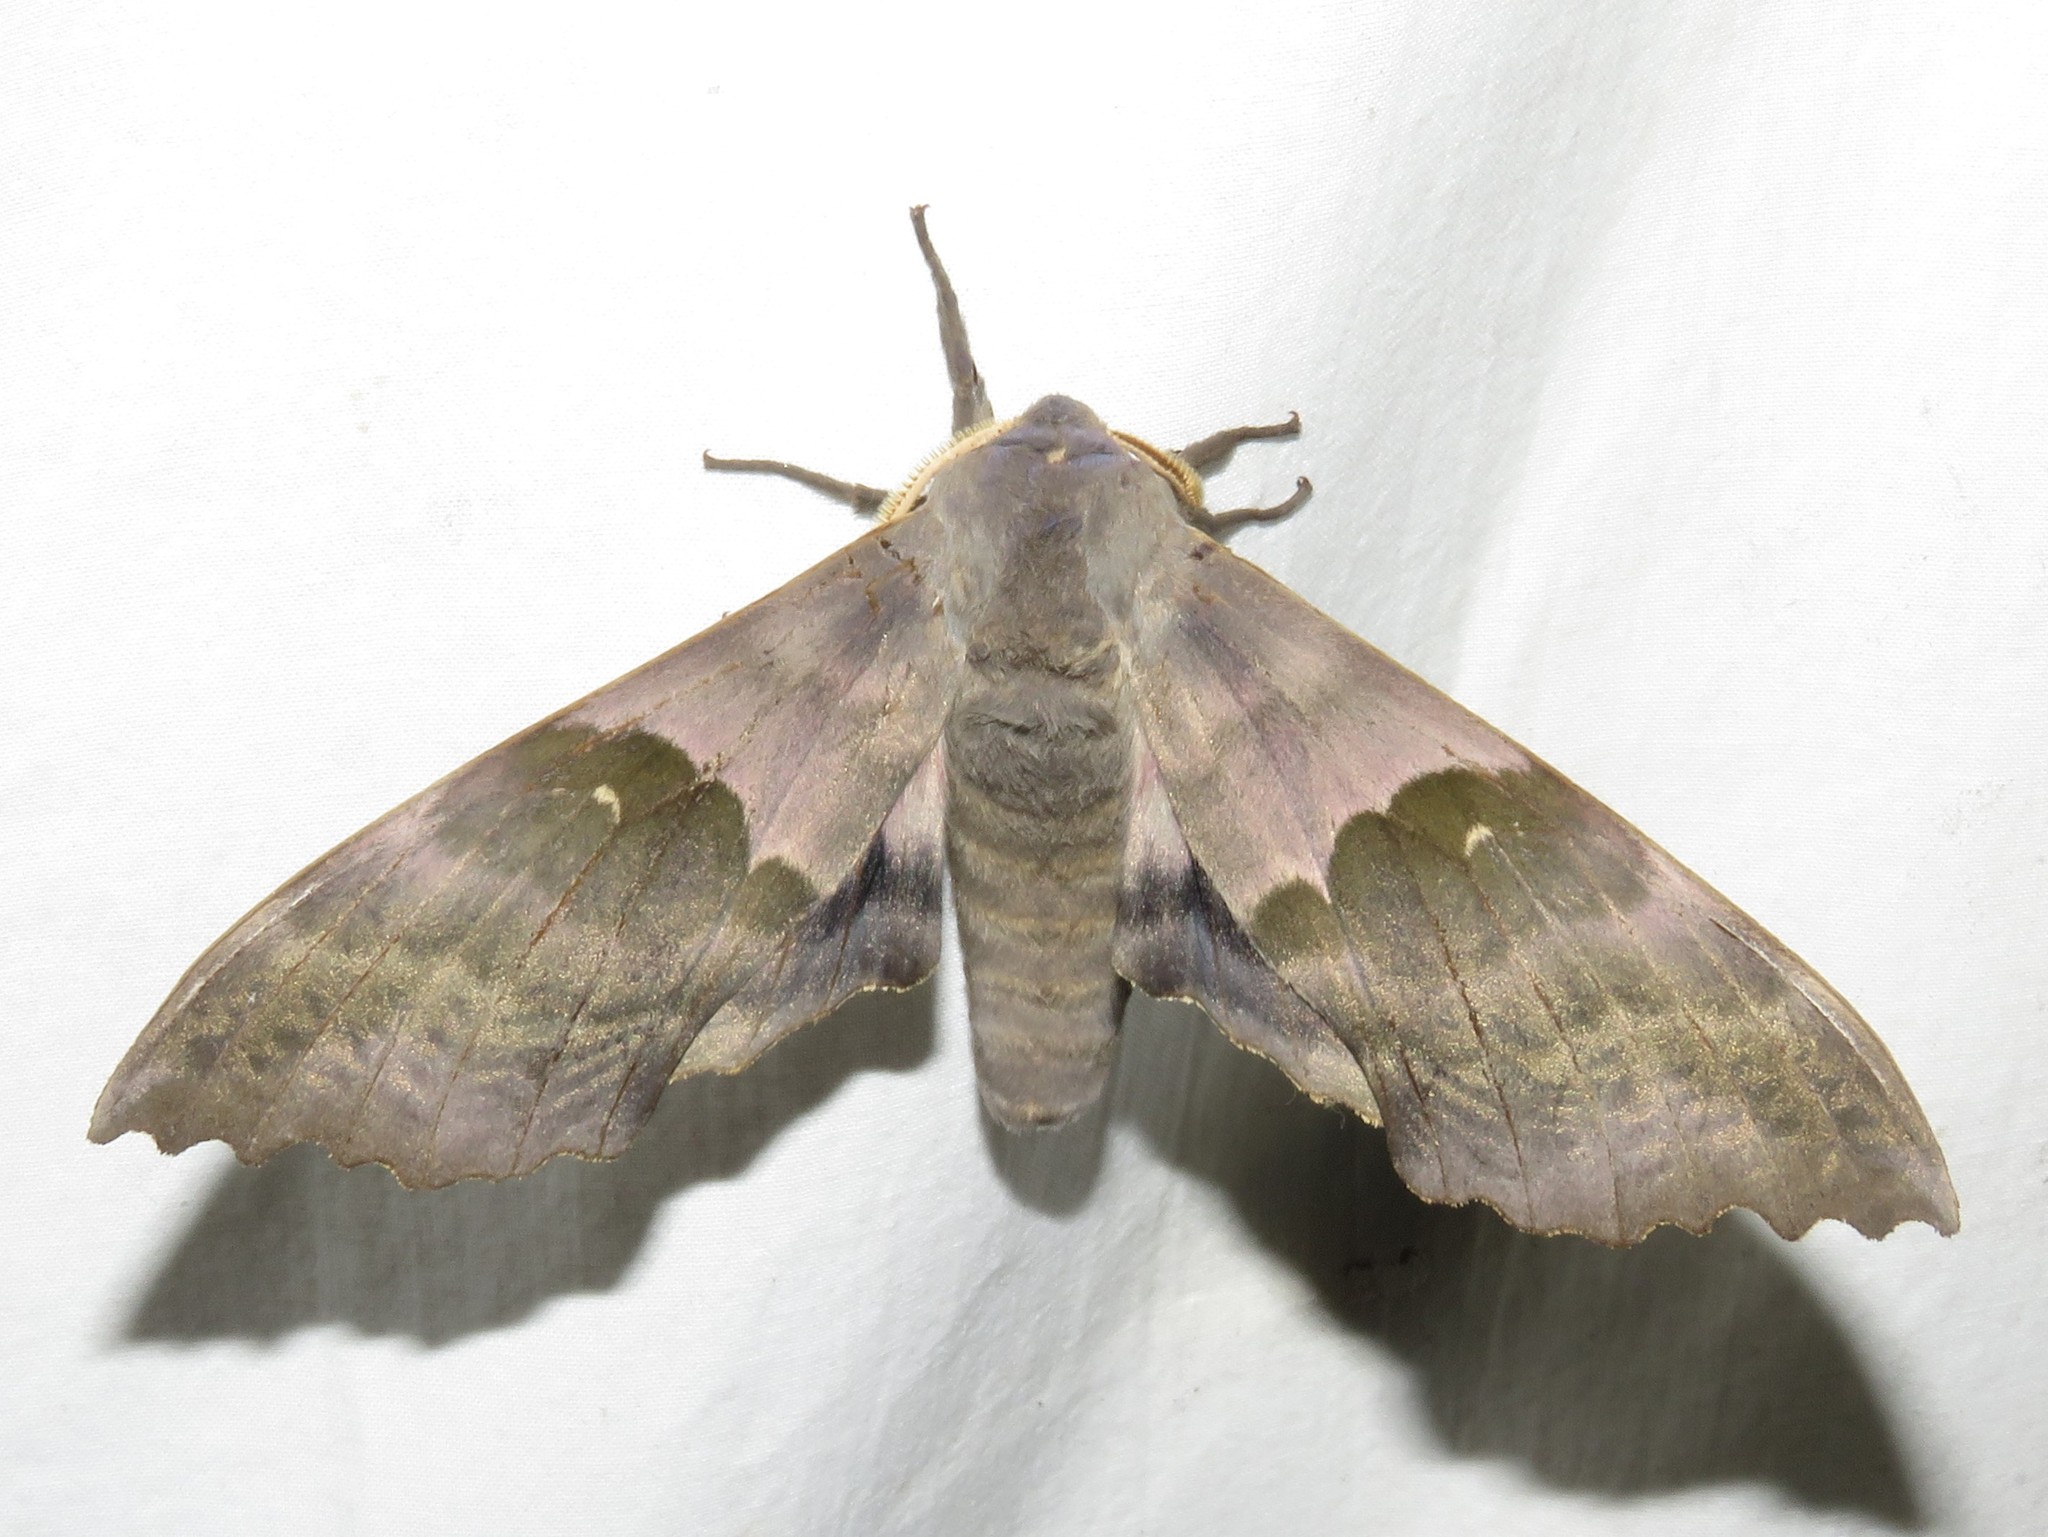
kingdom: Animalia
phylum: Arthropoda
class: Insecta
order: Lepidoptera
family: Sphingidae
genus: Pachysphinx
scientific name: Pachysphinx modesta
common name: Big poplar sphinx
